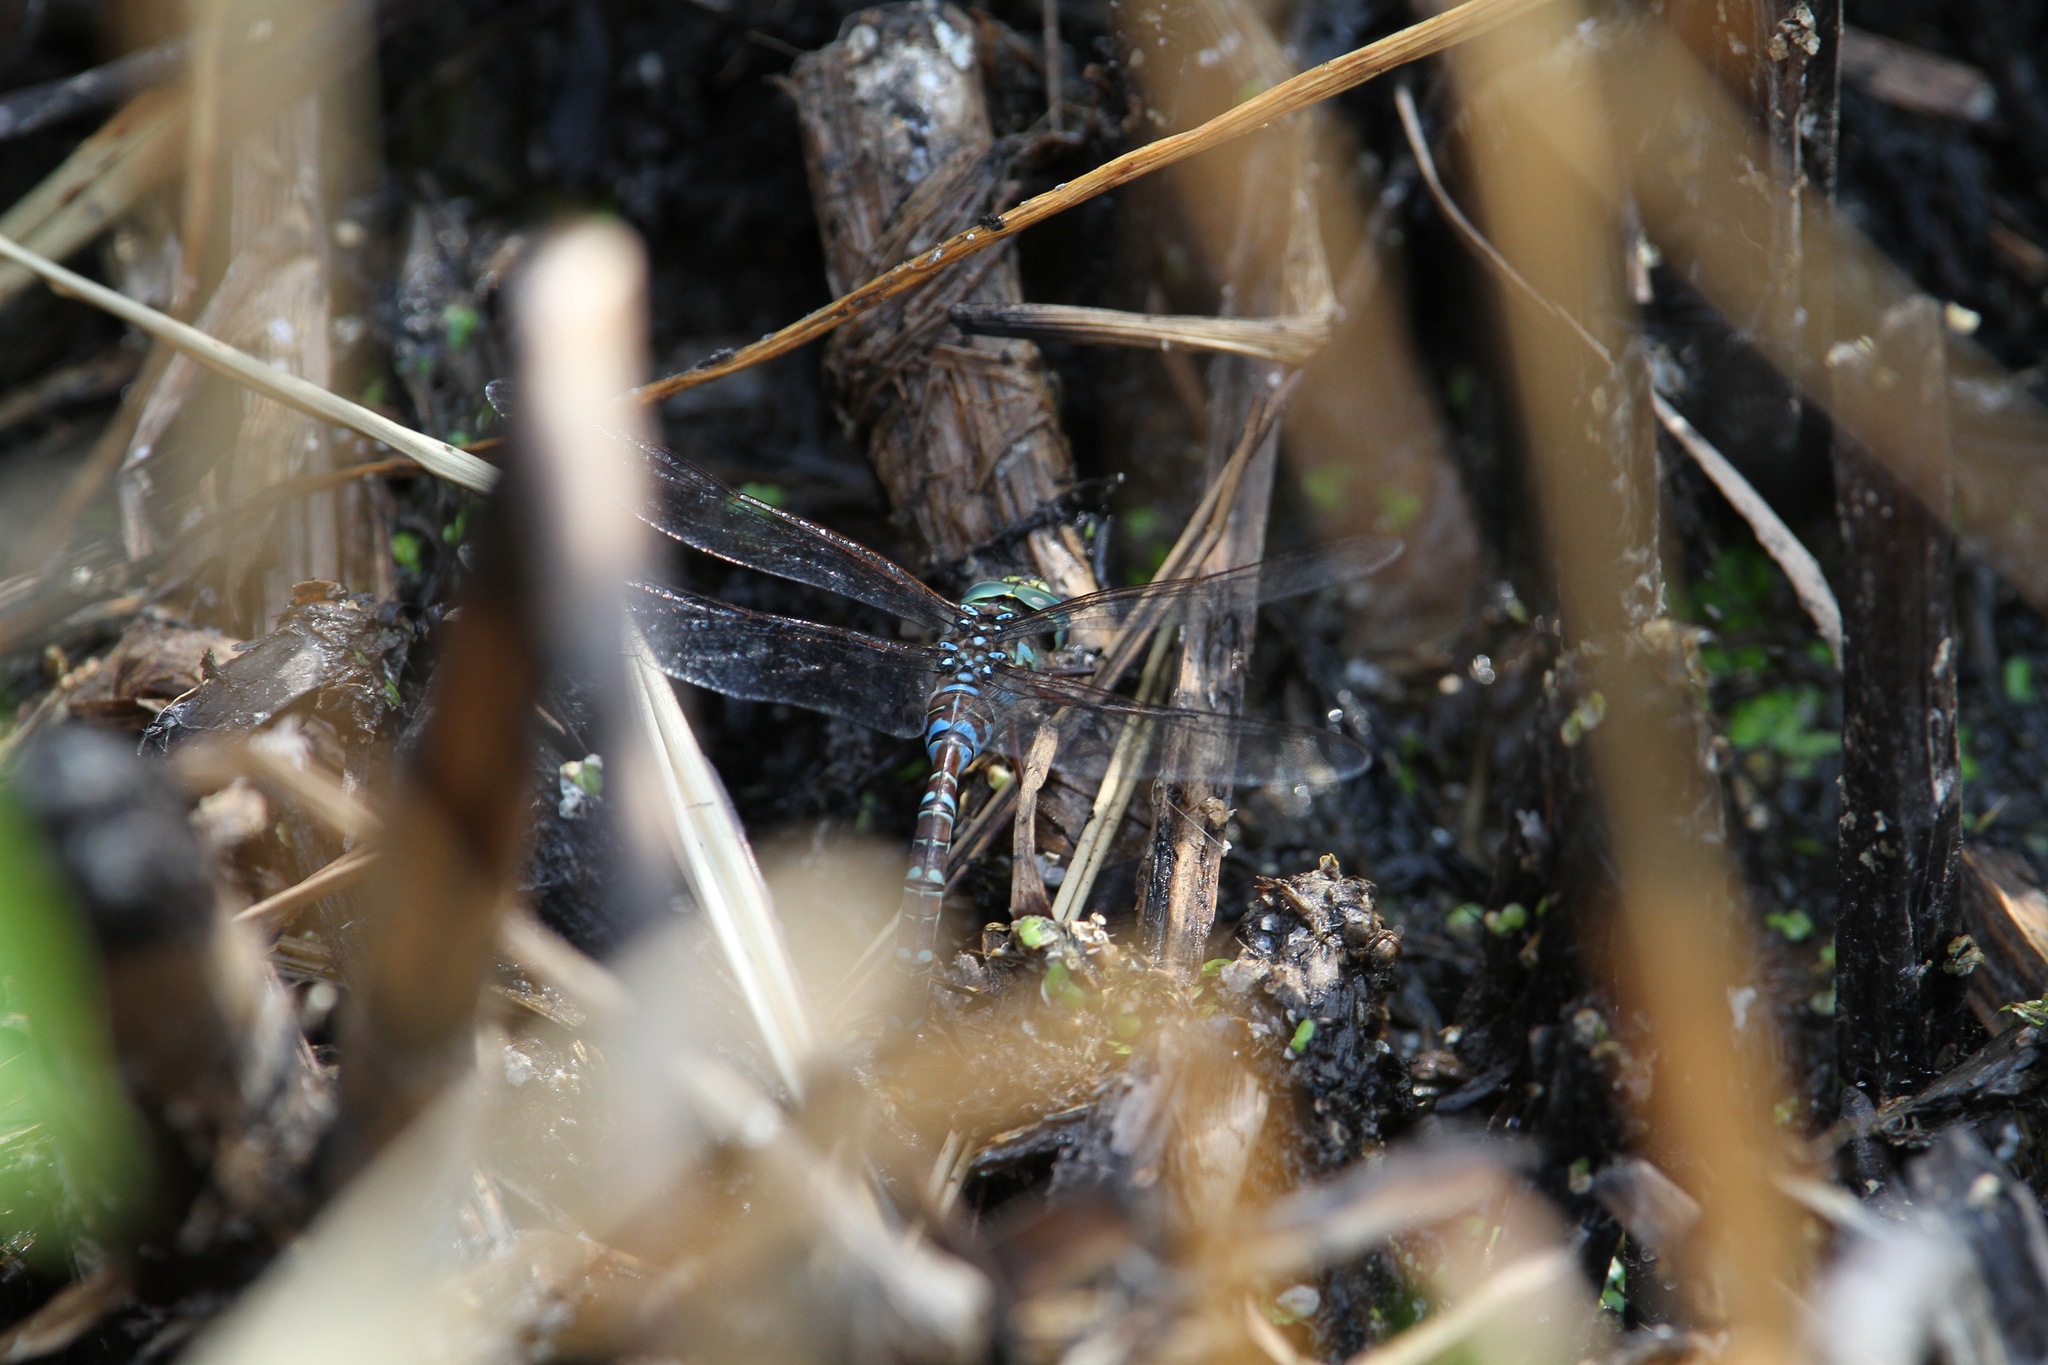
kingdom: Animalia
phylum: Arthropoda
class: Insecta
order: Odonata
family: Aeshnidae
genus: Aeshna
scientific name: Aeshna canadensis
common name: Canada darner
